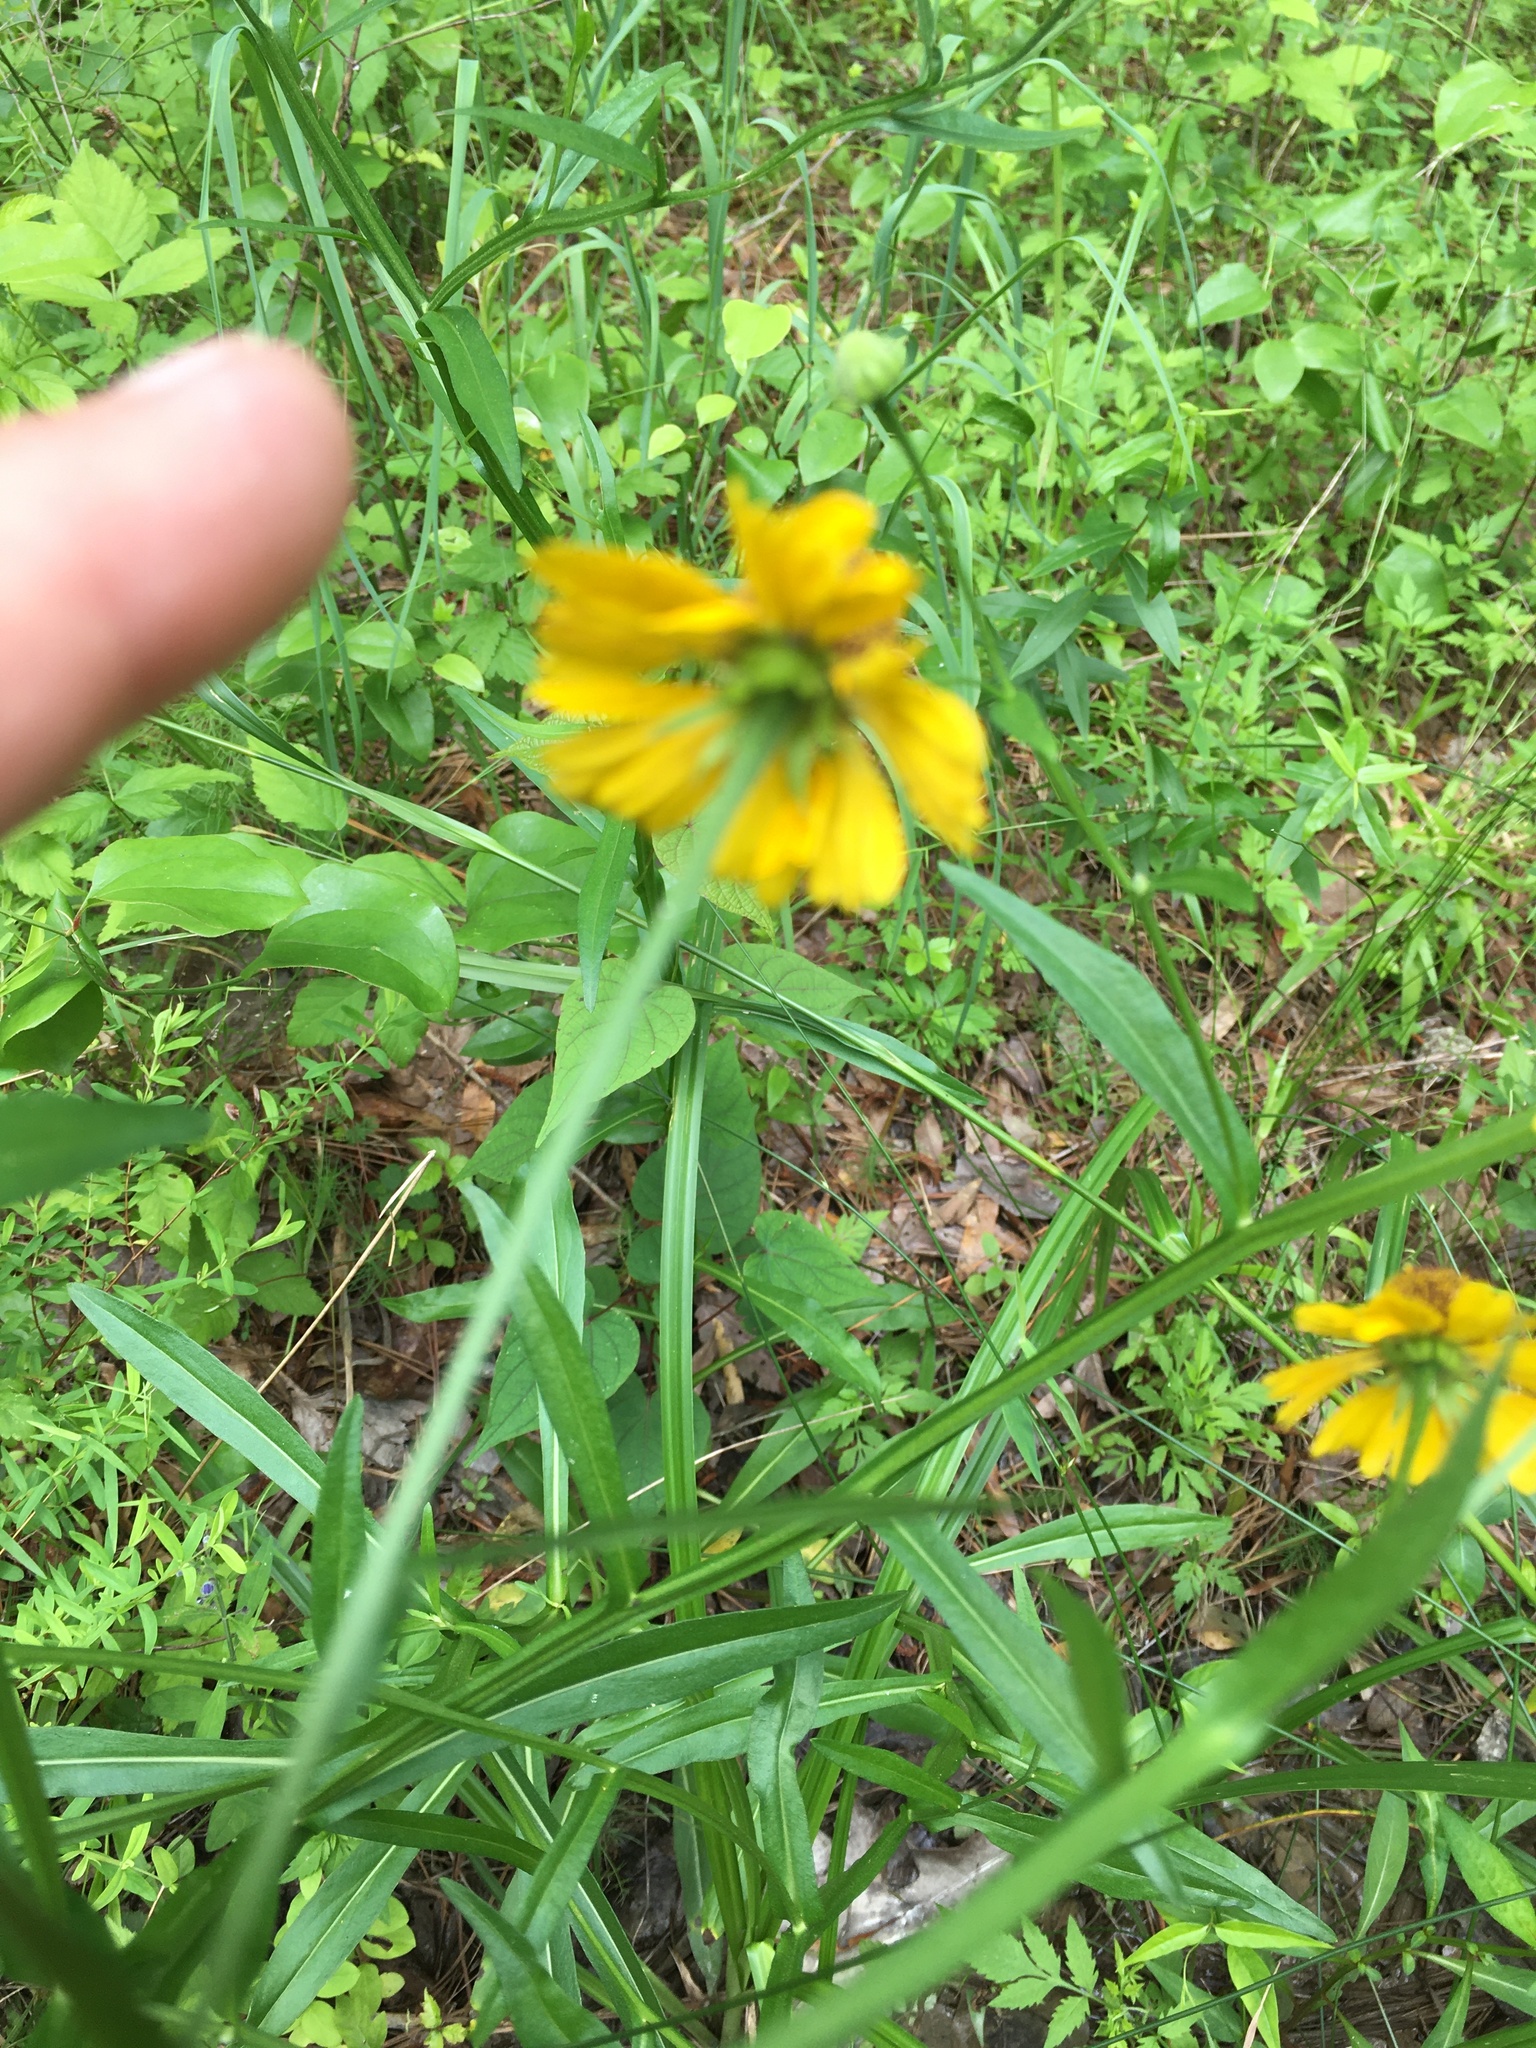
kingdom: Plantae
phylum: Tracheophyta
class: Magnoliopsida
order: Asterales
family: Asteraceae
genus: Helenium
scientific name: Helenium flexuosum
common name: Naked-flowered sneezeweed
